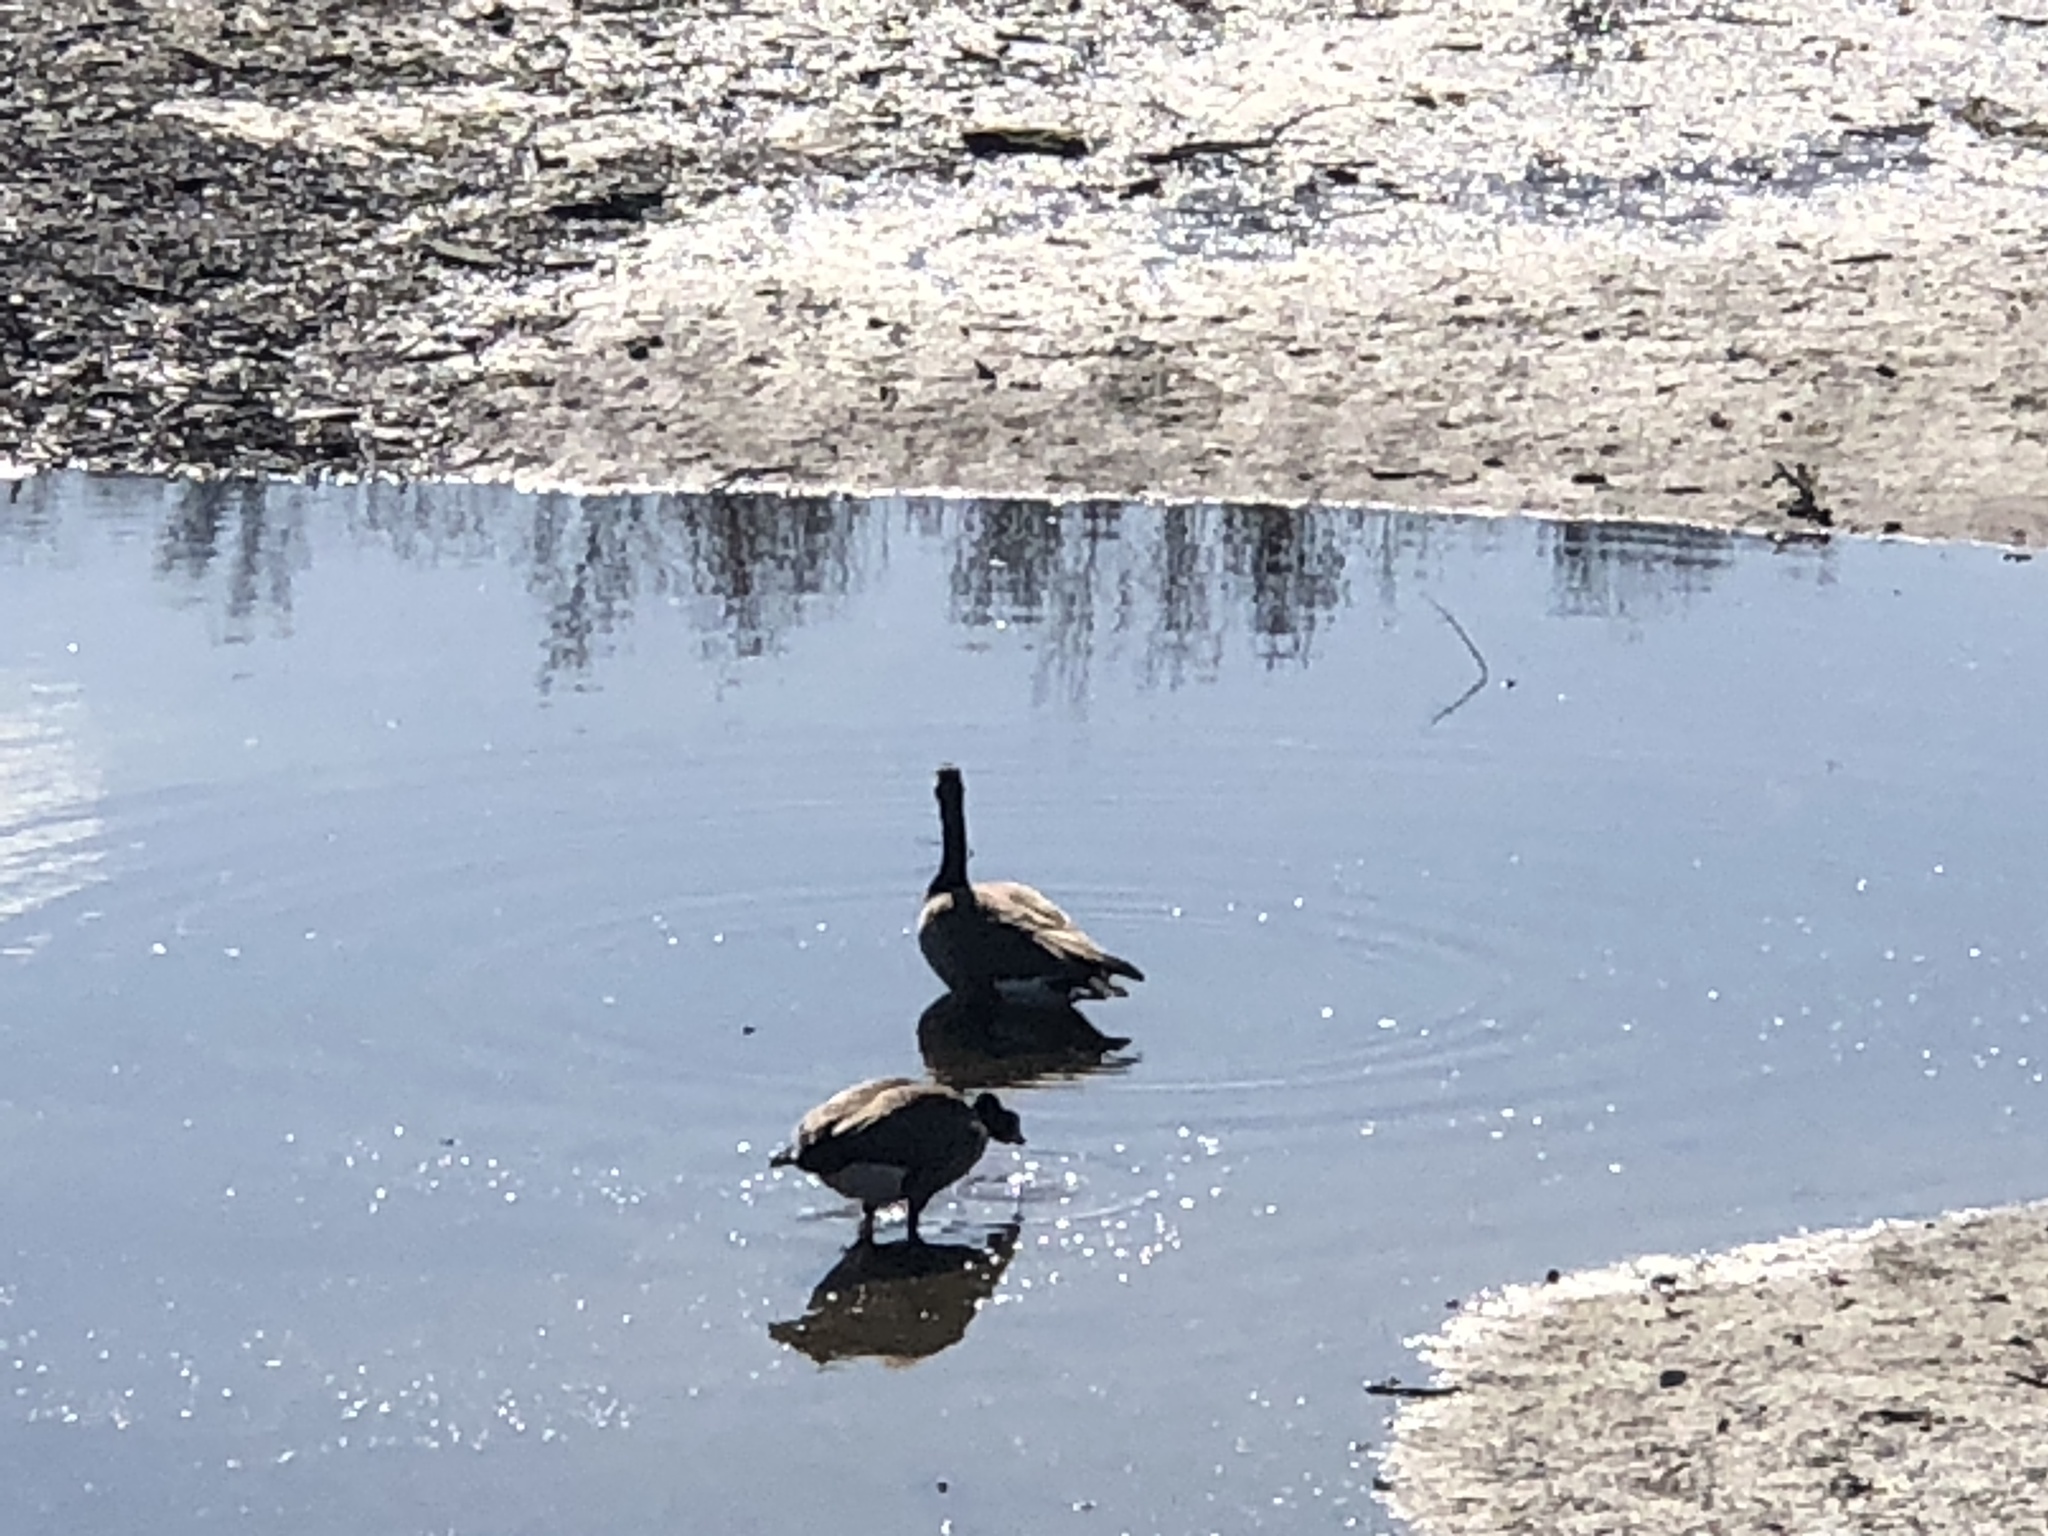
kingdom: Animalia
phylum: Chordata
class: Aves
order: Anseriformes
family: Anatidae
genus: Branta
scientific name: Branta canadensis
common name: Canada goose
